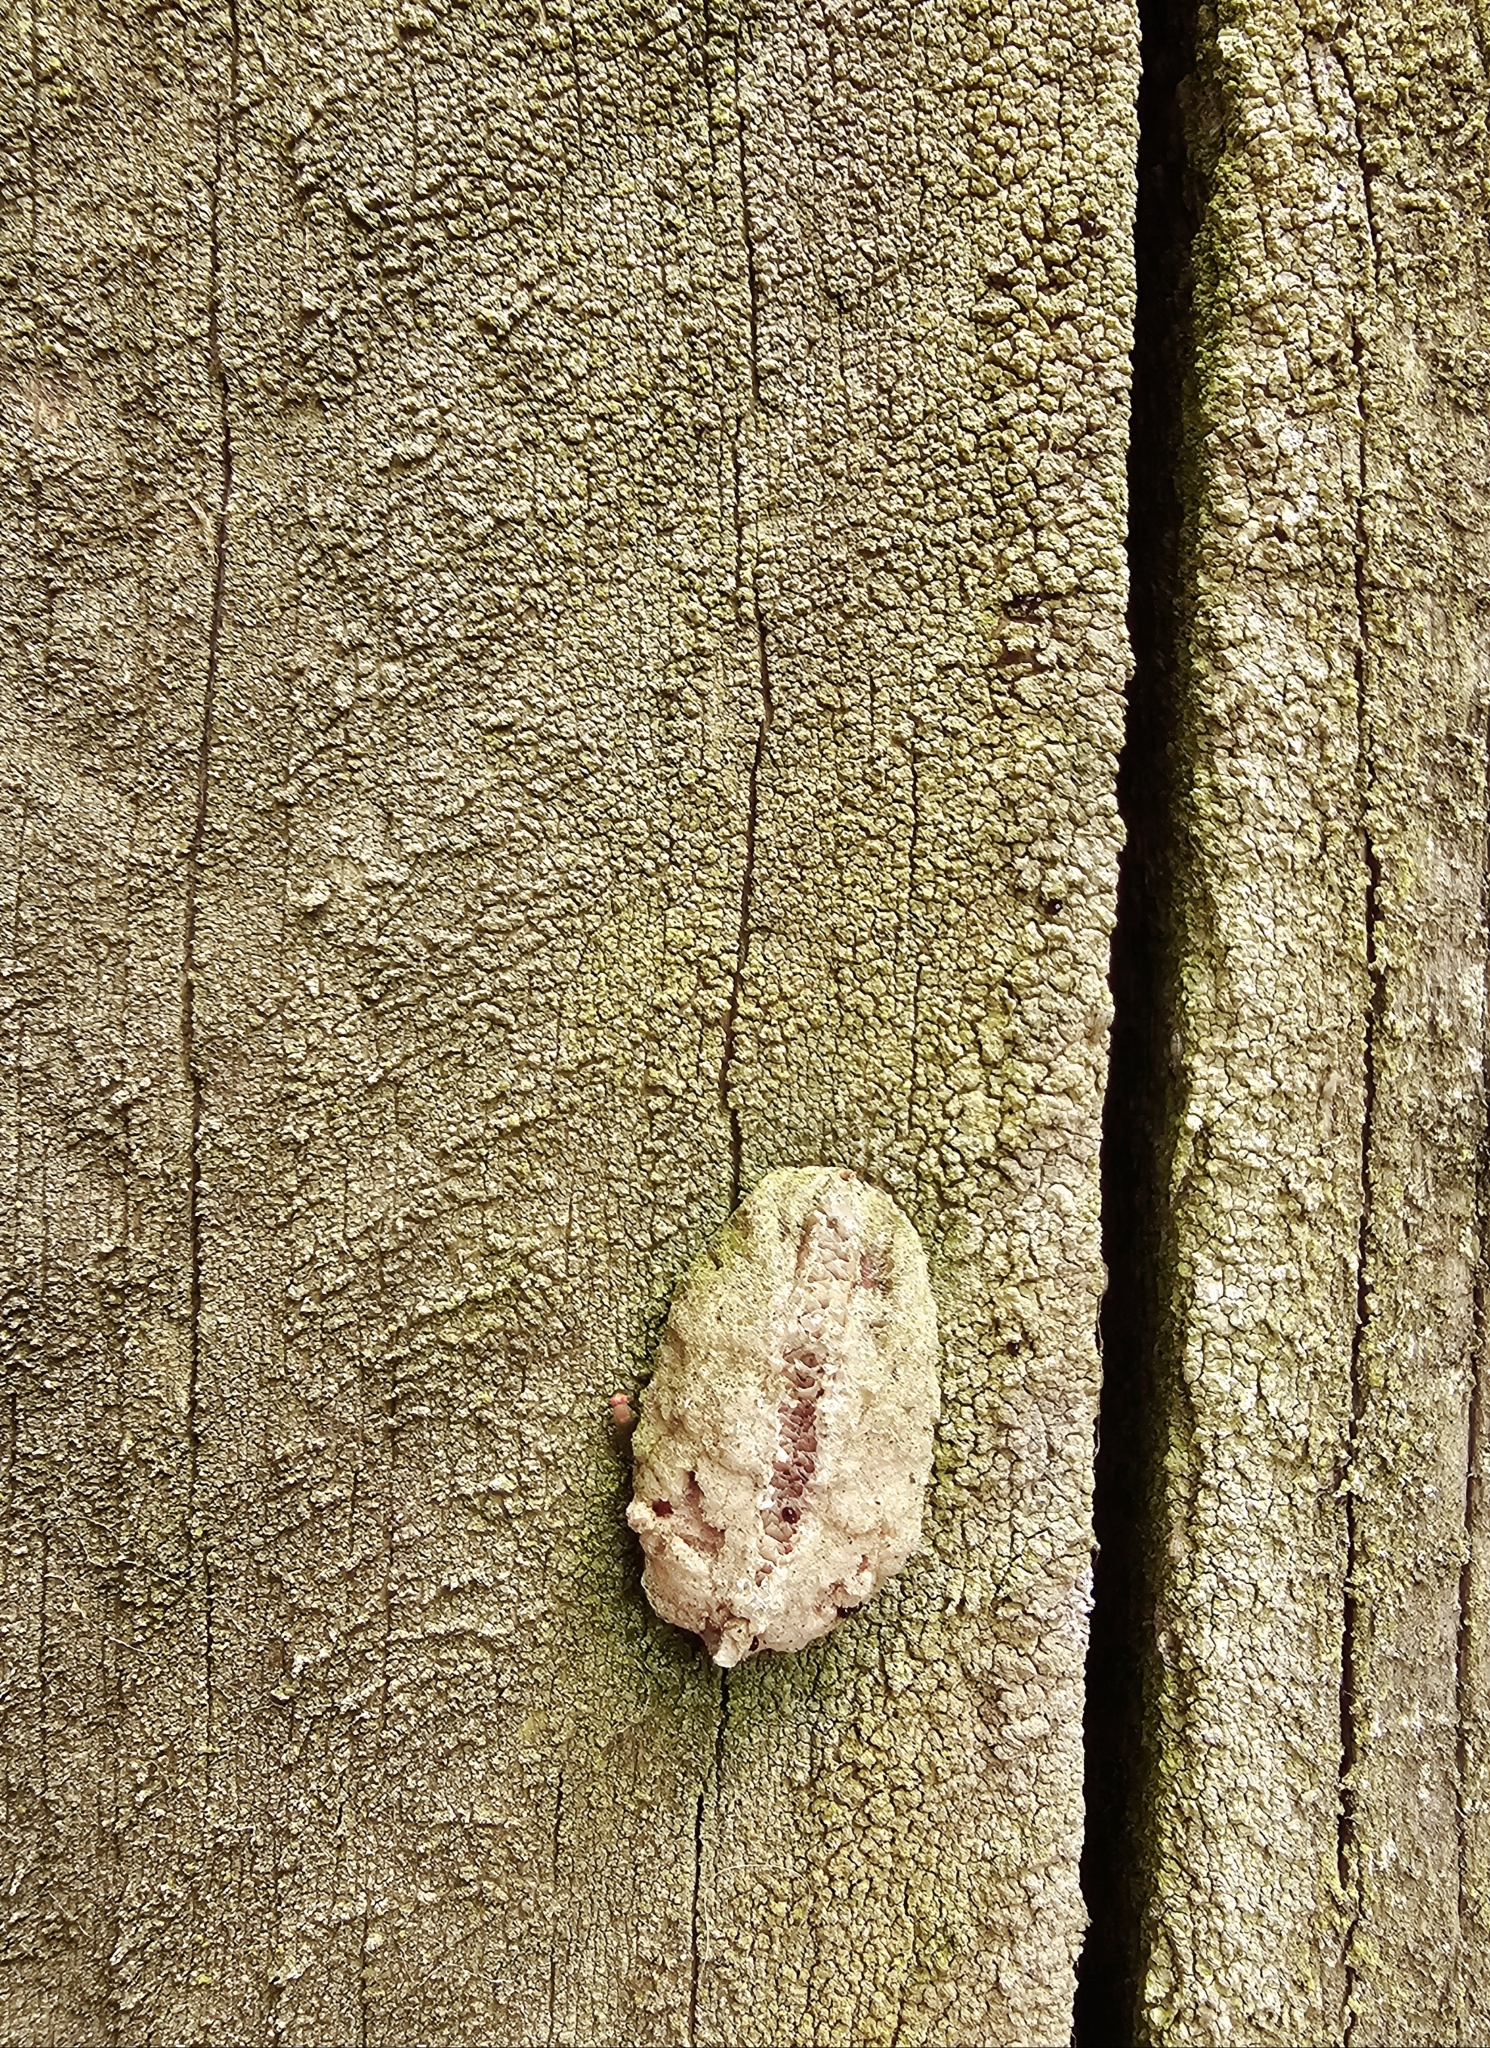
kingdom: Animalia
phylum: Arthropoda
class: Insecta
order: Mantodea
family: Miomantidae
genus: Miomantis
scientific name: Miomantis caffra
